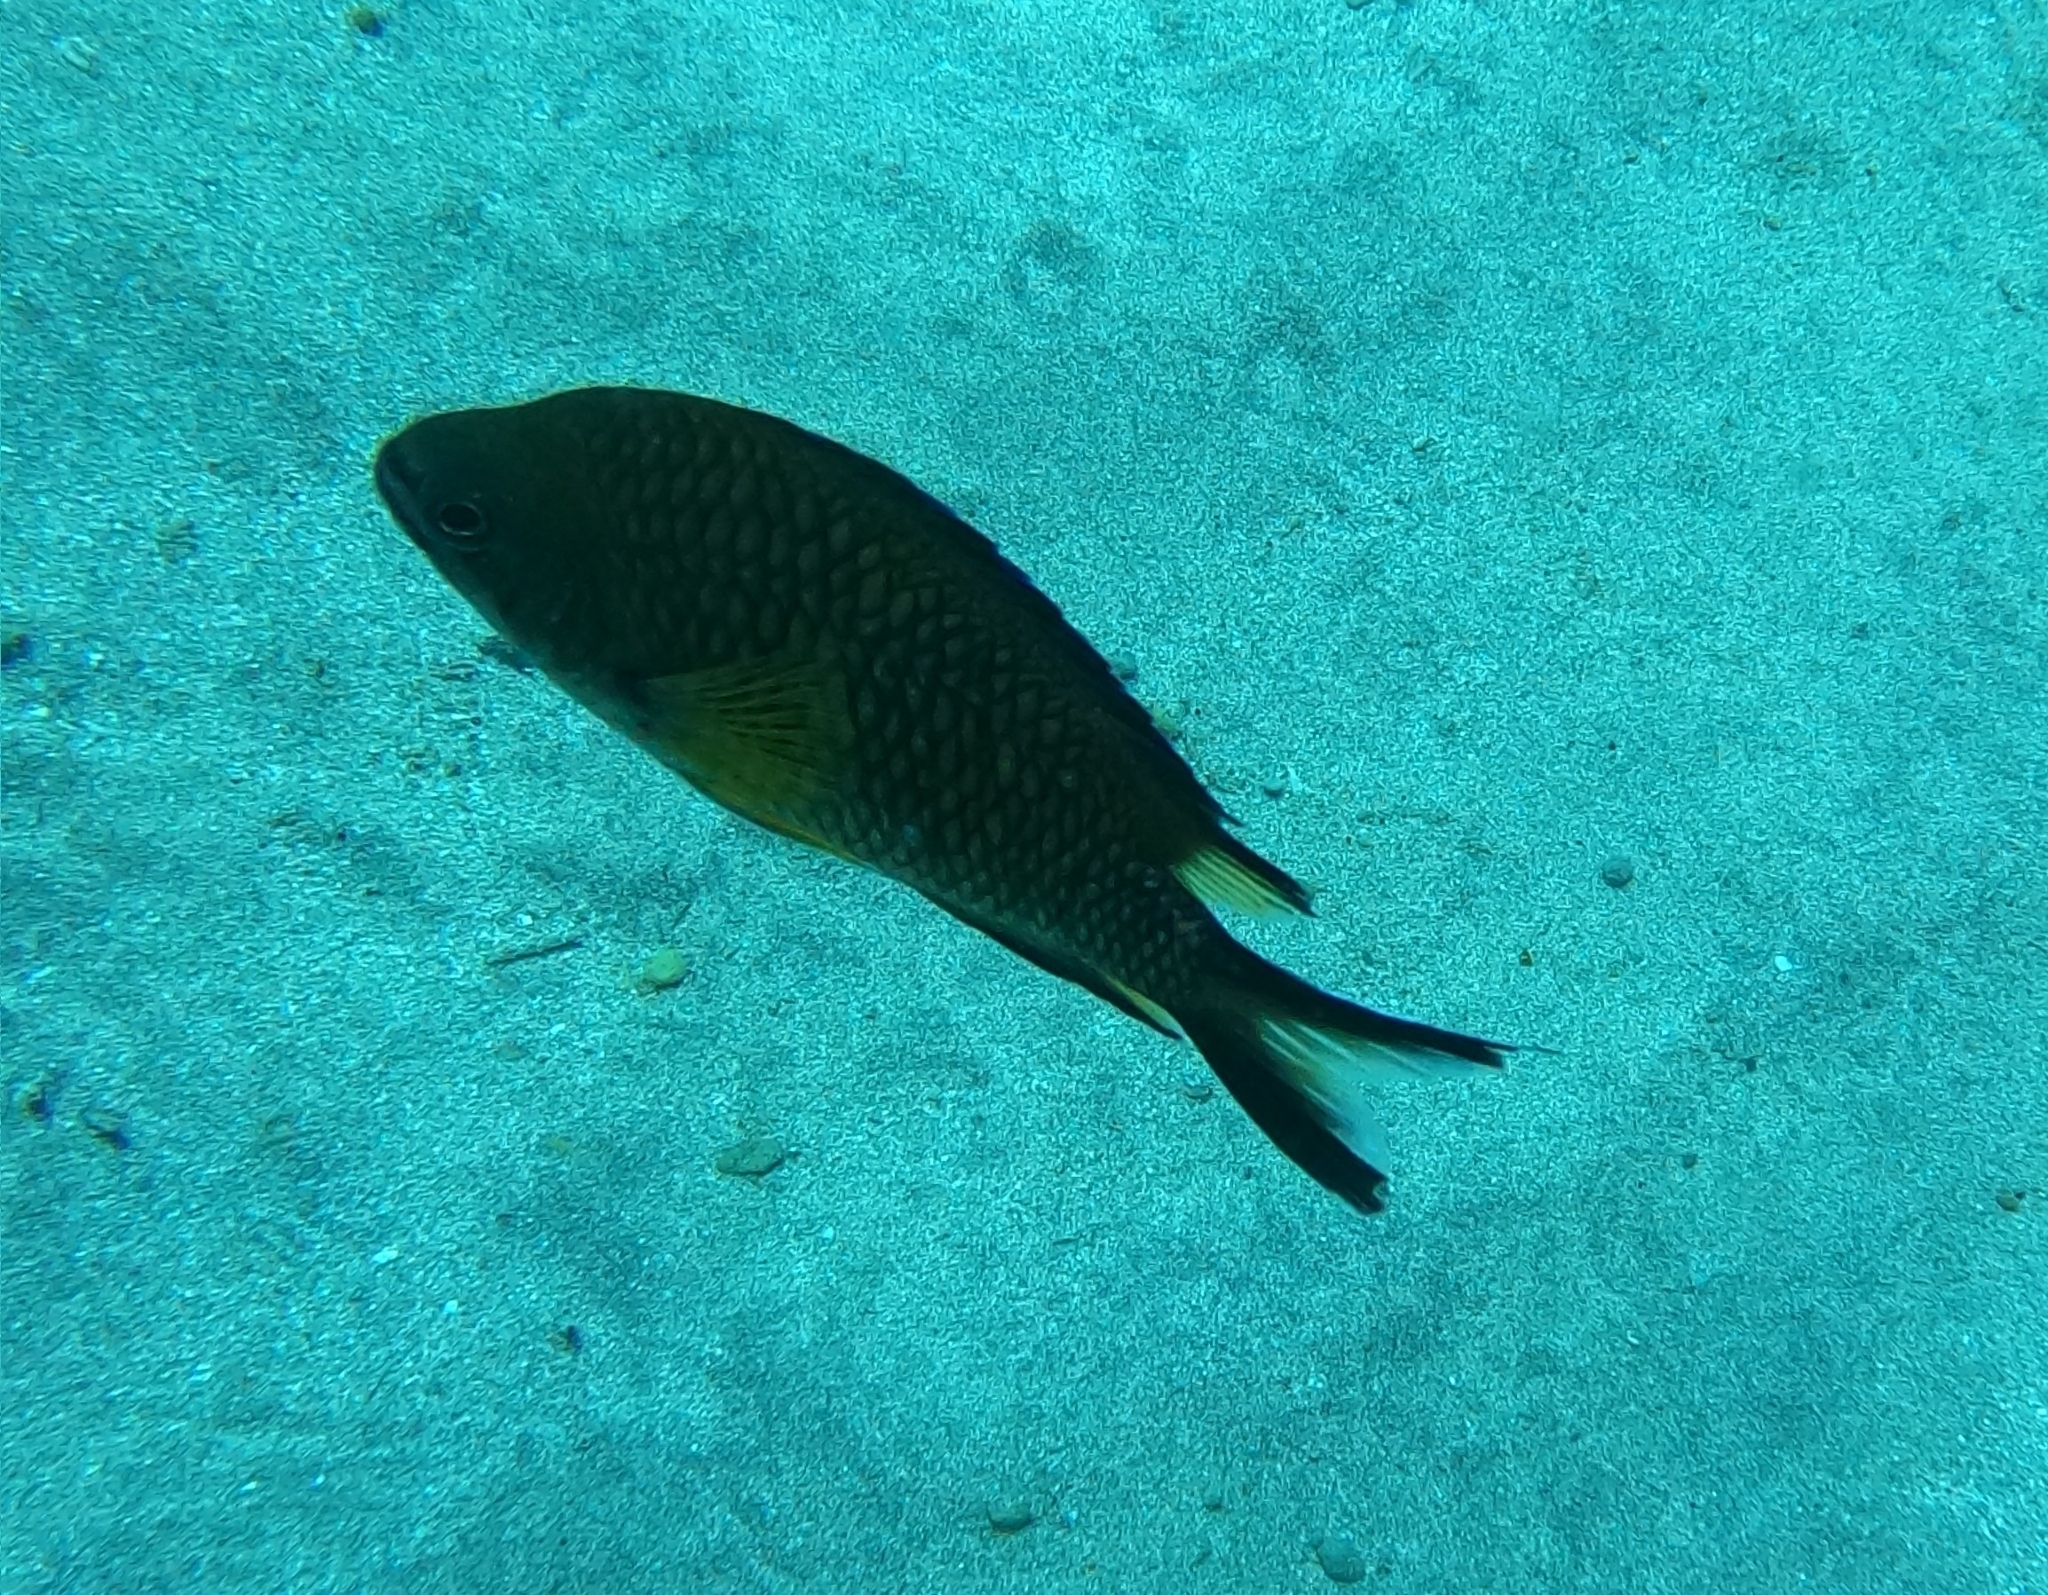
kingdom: Animalia
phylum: Chordata
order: Perciformes
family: Pomacentridae
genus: Chromis
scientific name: Chromis limbata
